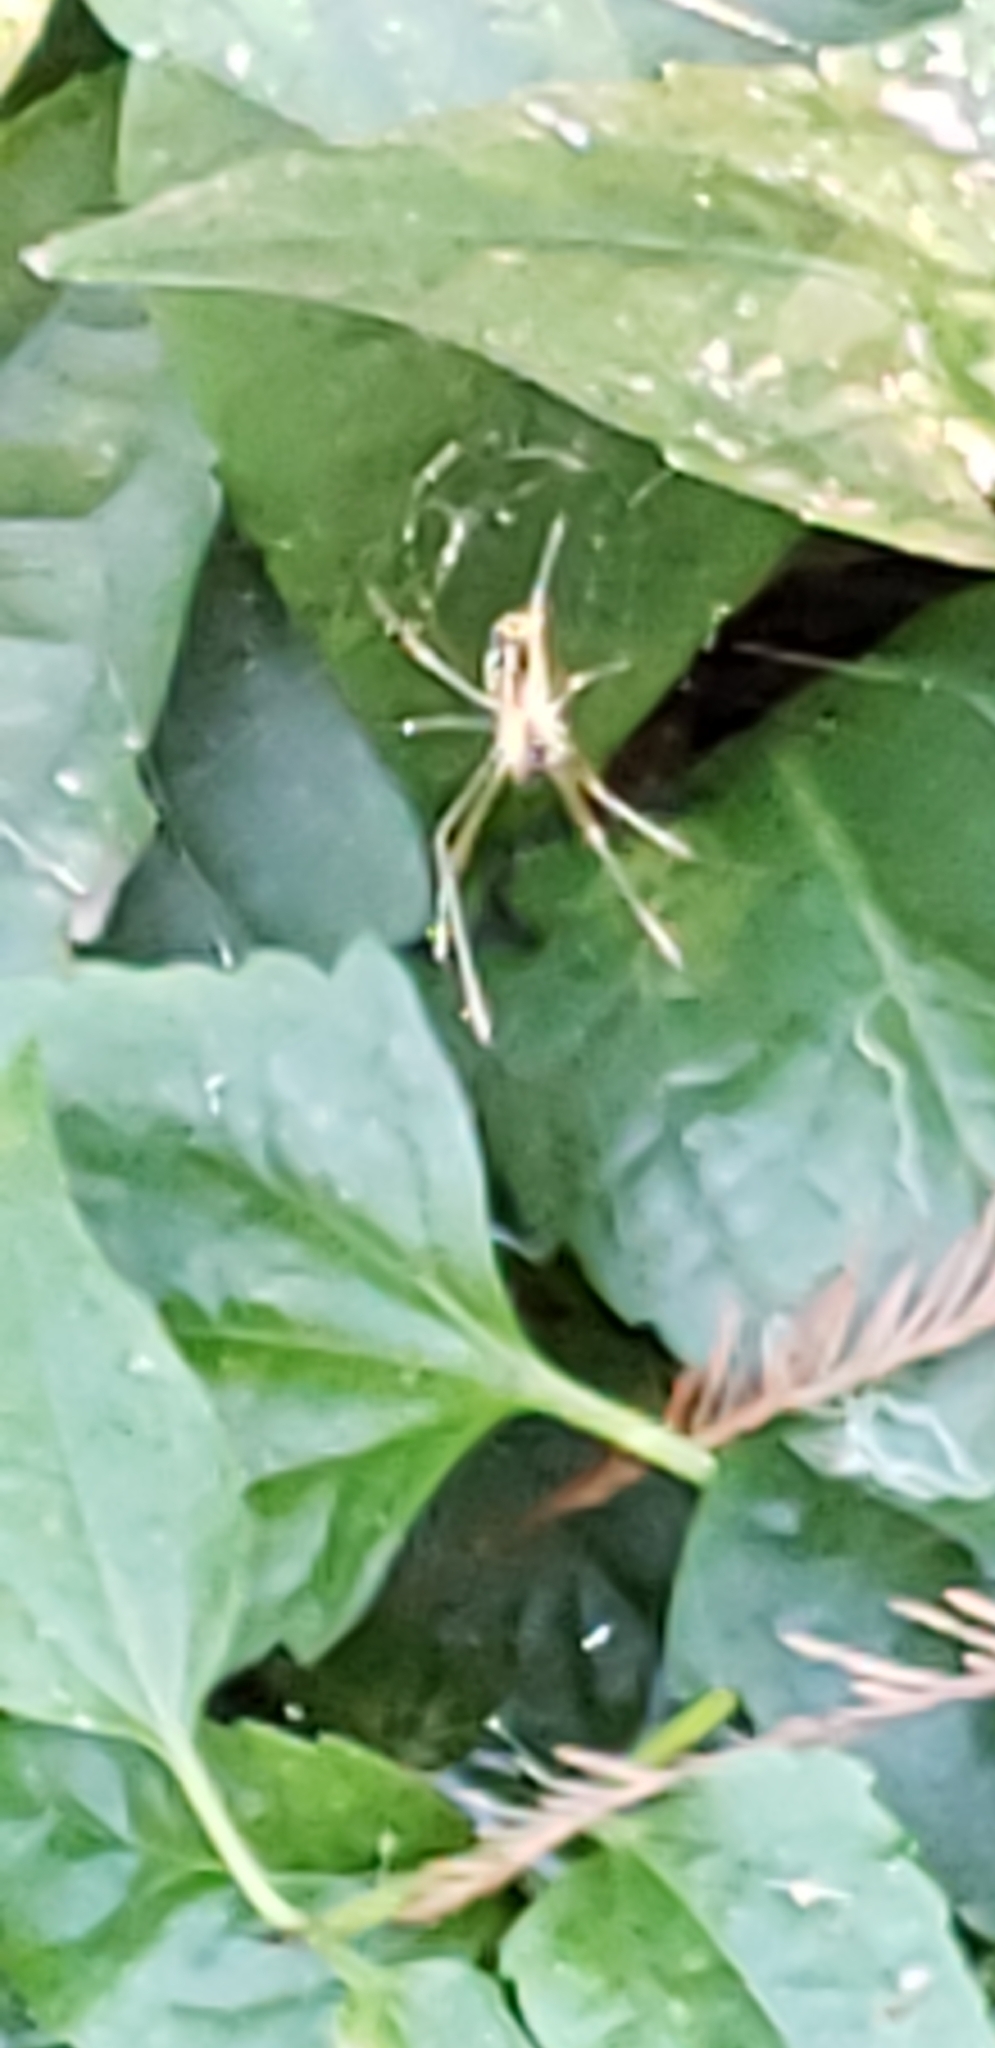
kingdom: Animalia
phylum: Arthropoda
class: Arachnida
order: Araneae
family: Tetragnathidae
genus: Leucauge
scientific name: Leucauge argyra
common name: Longjawed orb weavers
